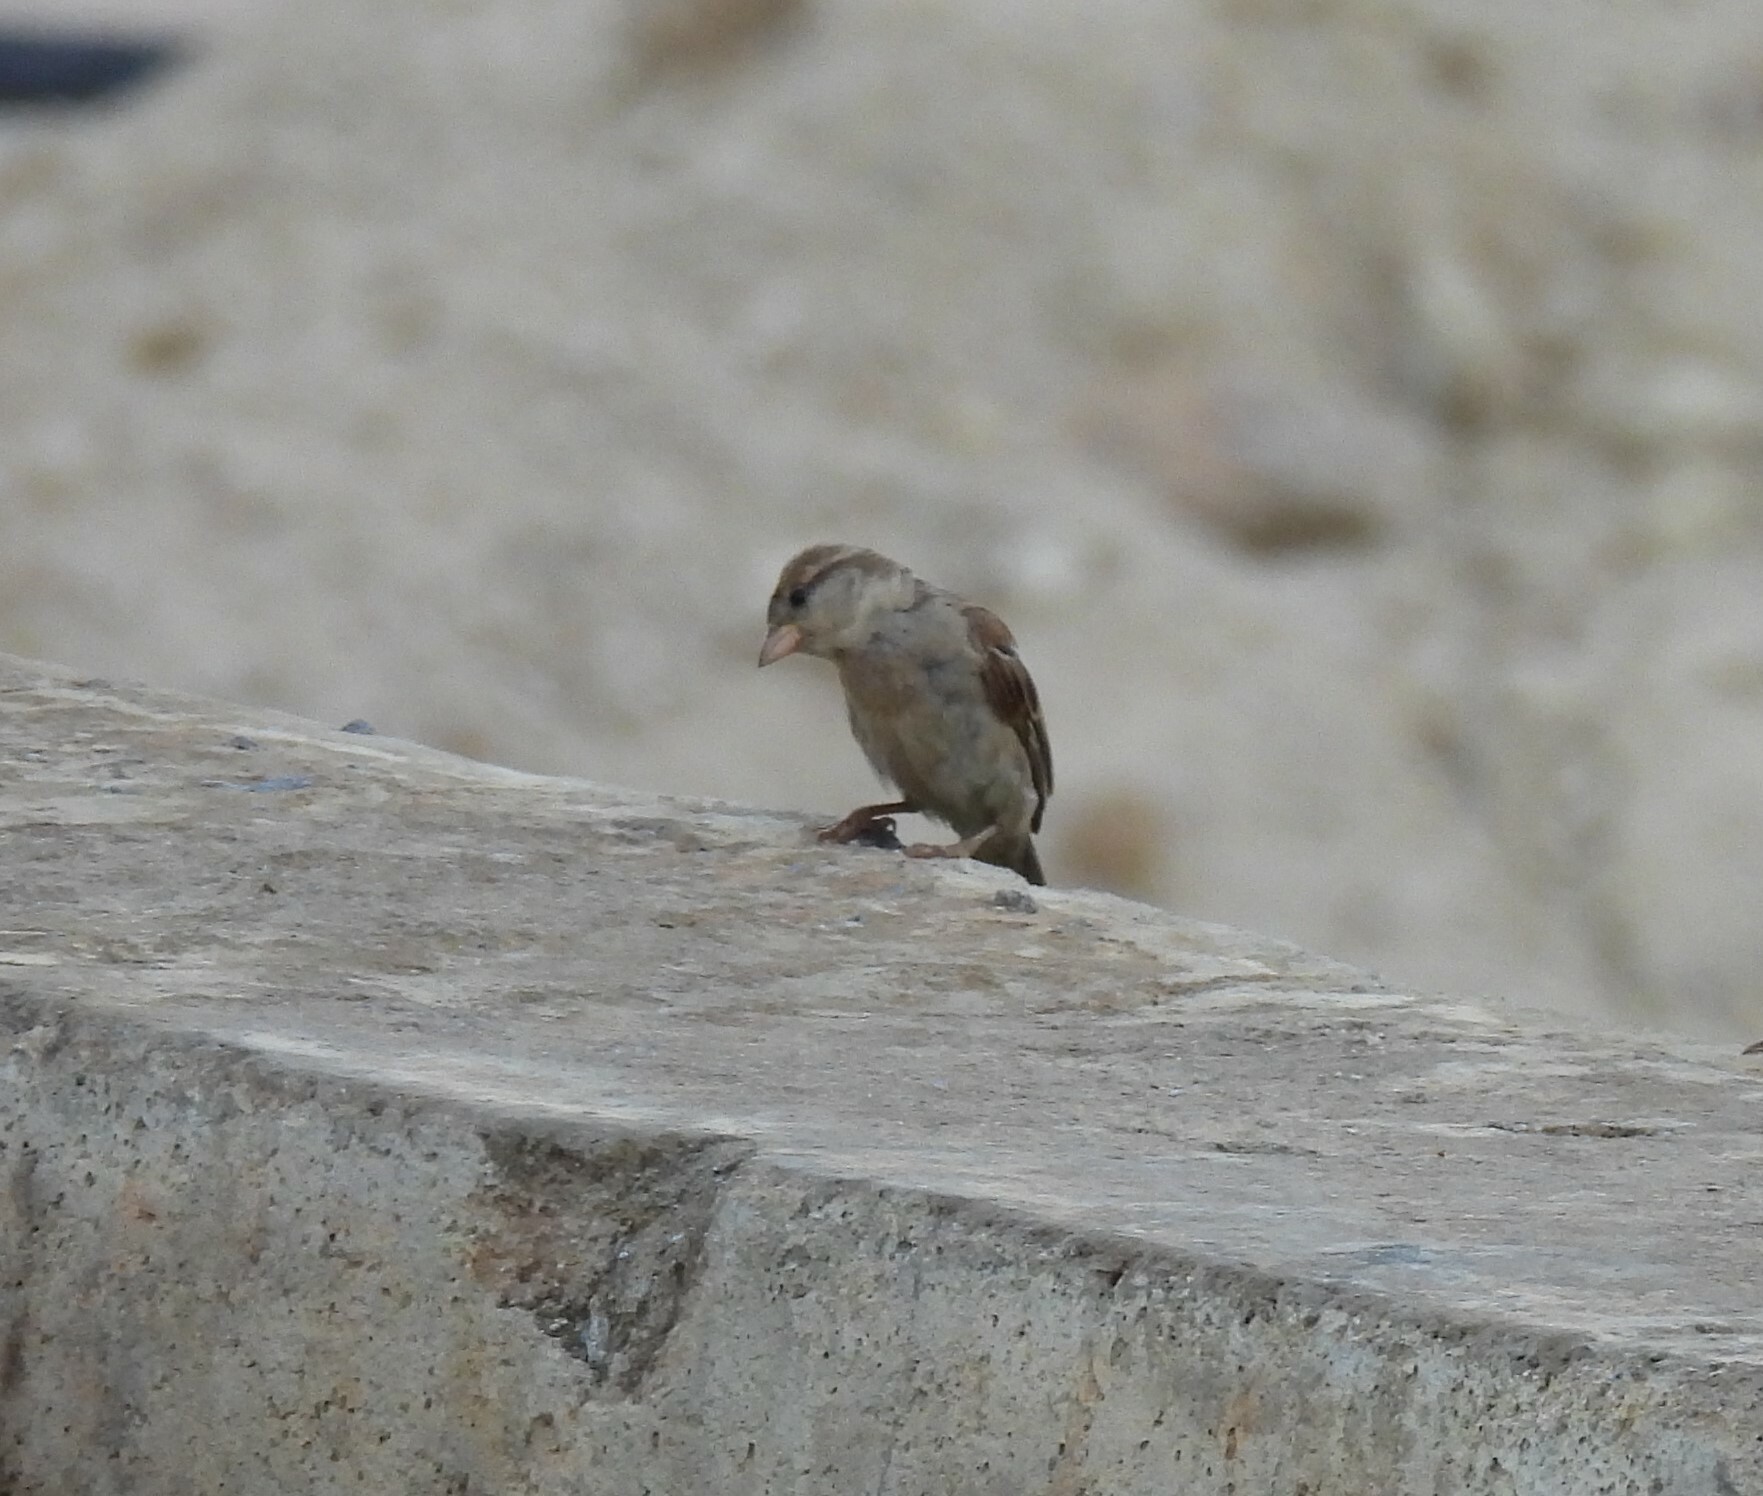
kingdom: Animalia
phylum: Chordata
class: Aves
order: Passeriformes
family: Passeridae
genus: Passer
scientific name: Passer domesticus
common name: House sparrow
